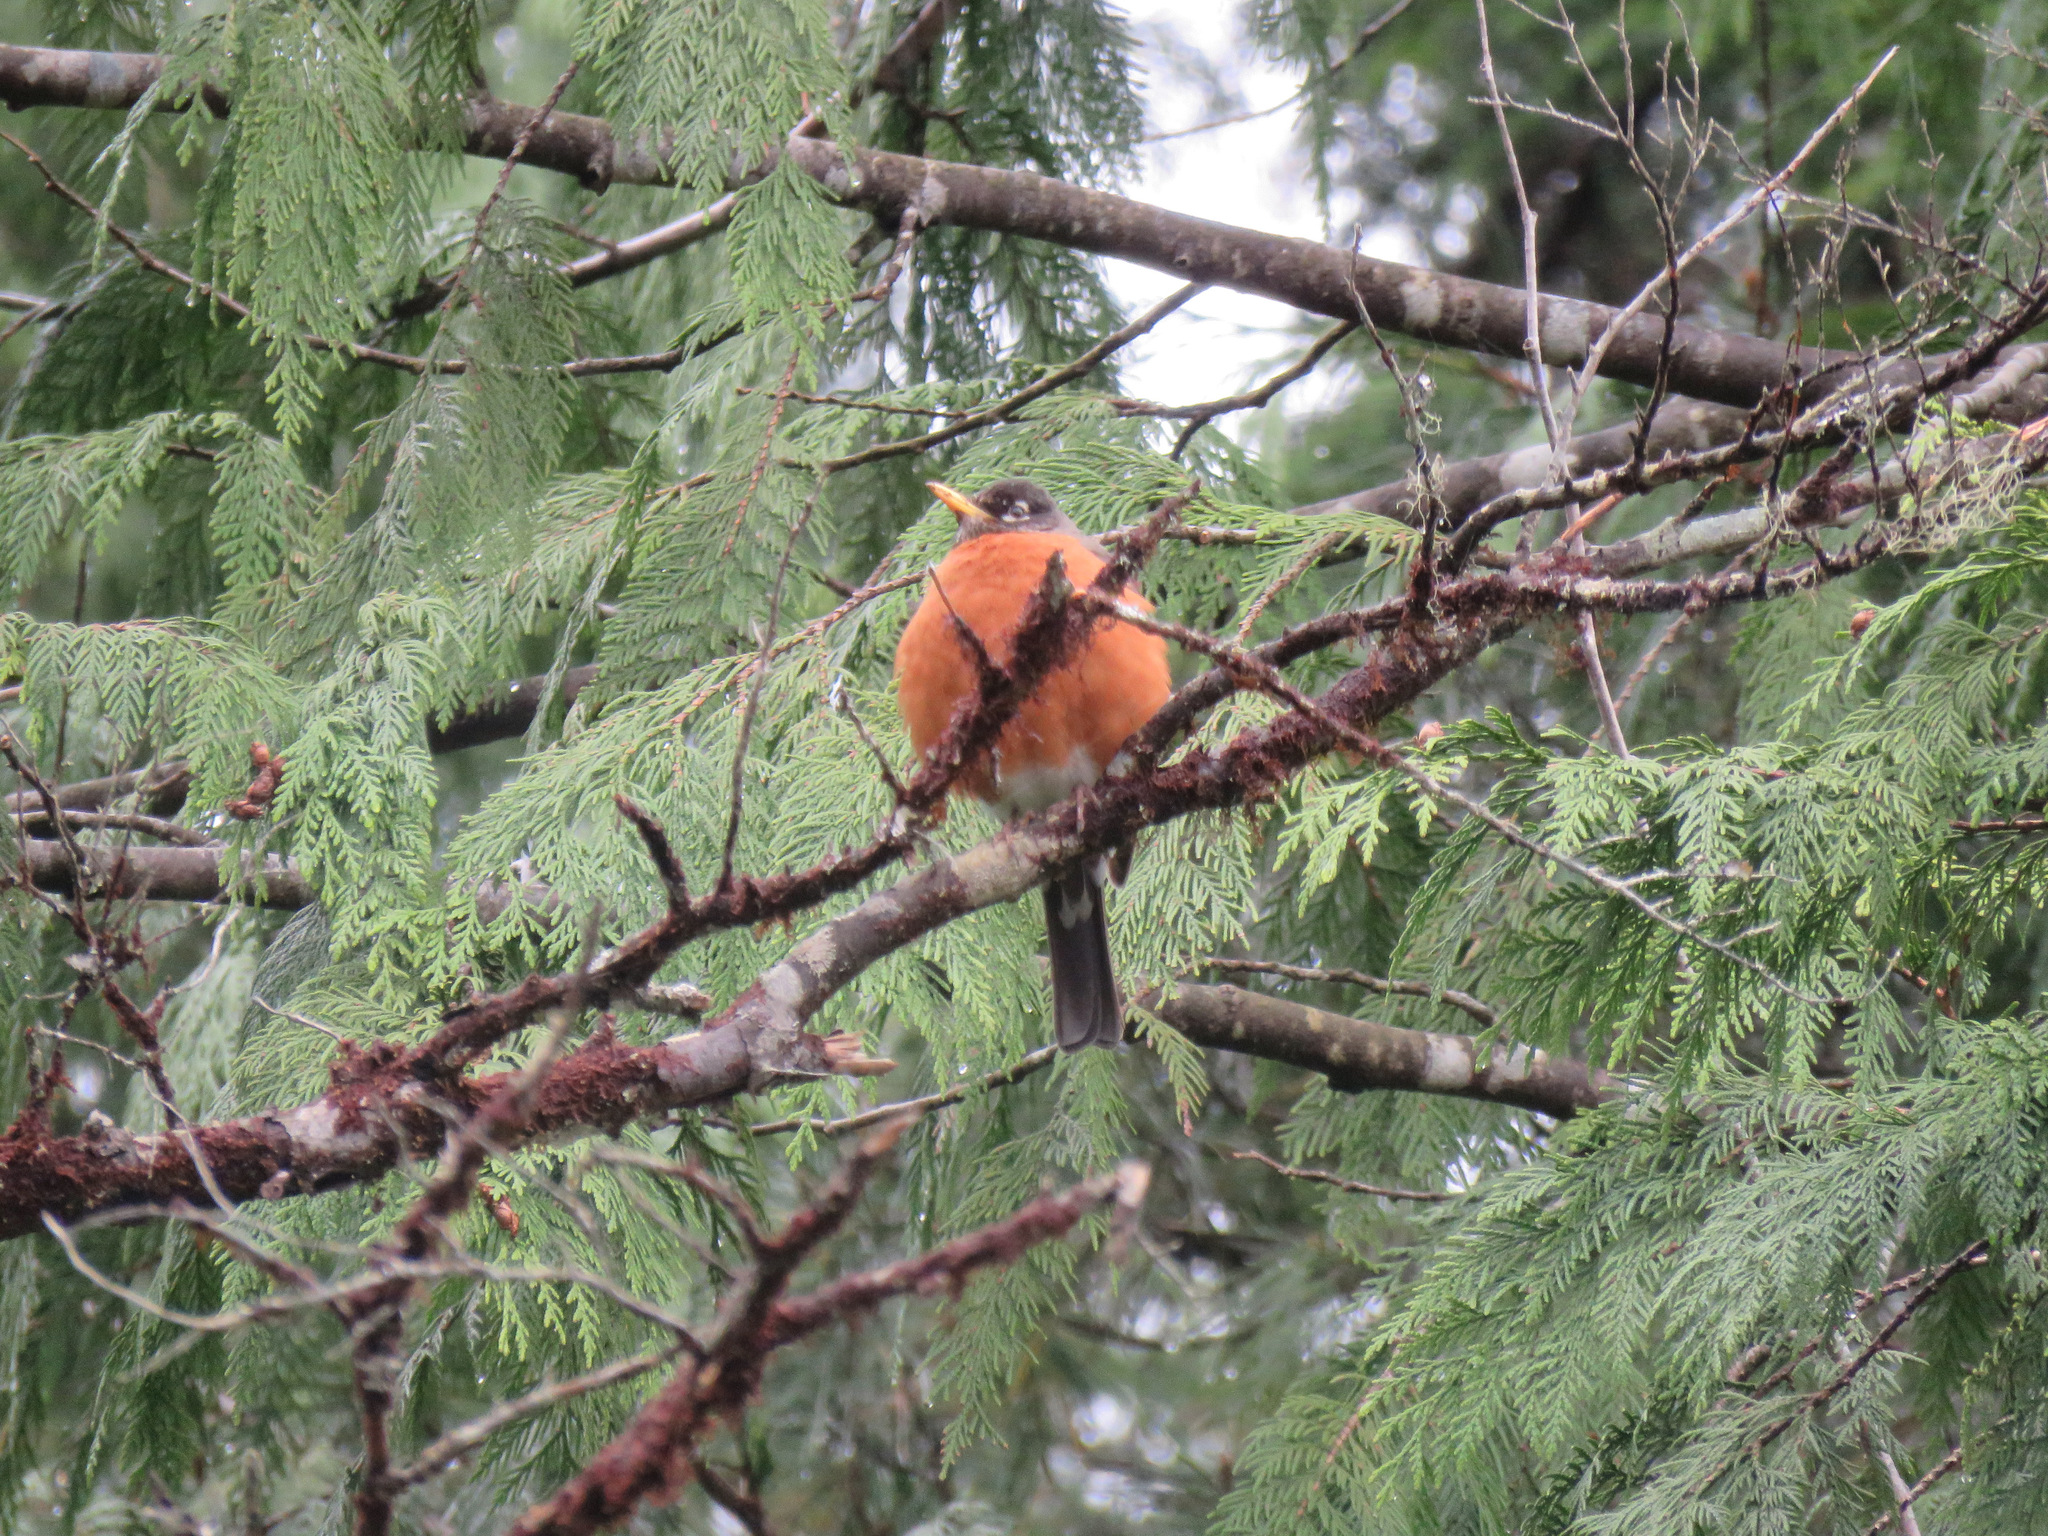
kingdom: Animalia
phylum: Chordata
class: Aves
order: Passeriformes
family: Turdidae
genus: Turdus
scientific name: Turdus migratorius
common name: American robin
